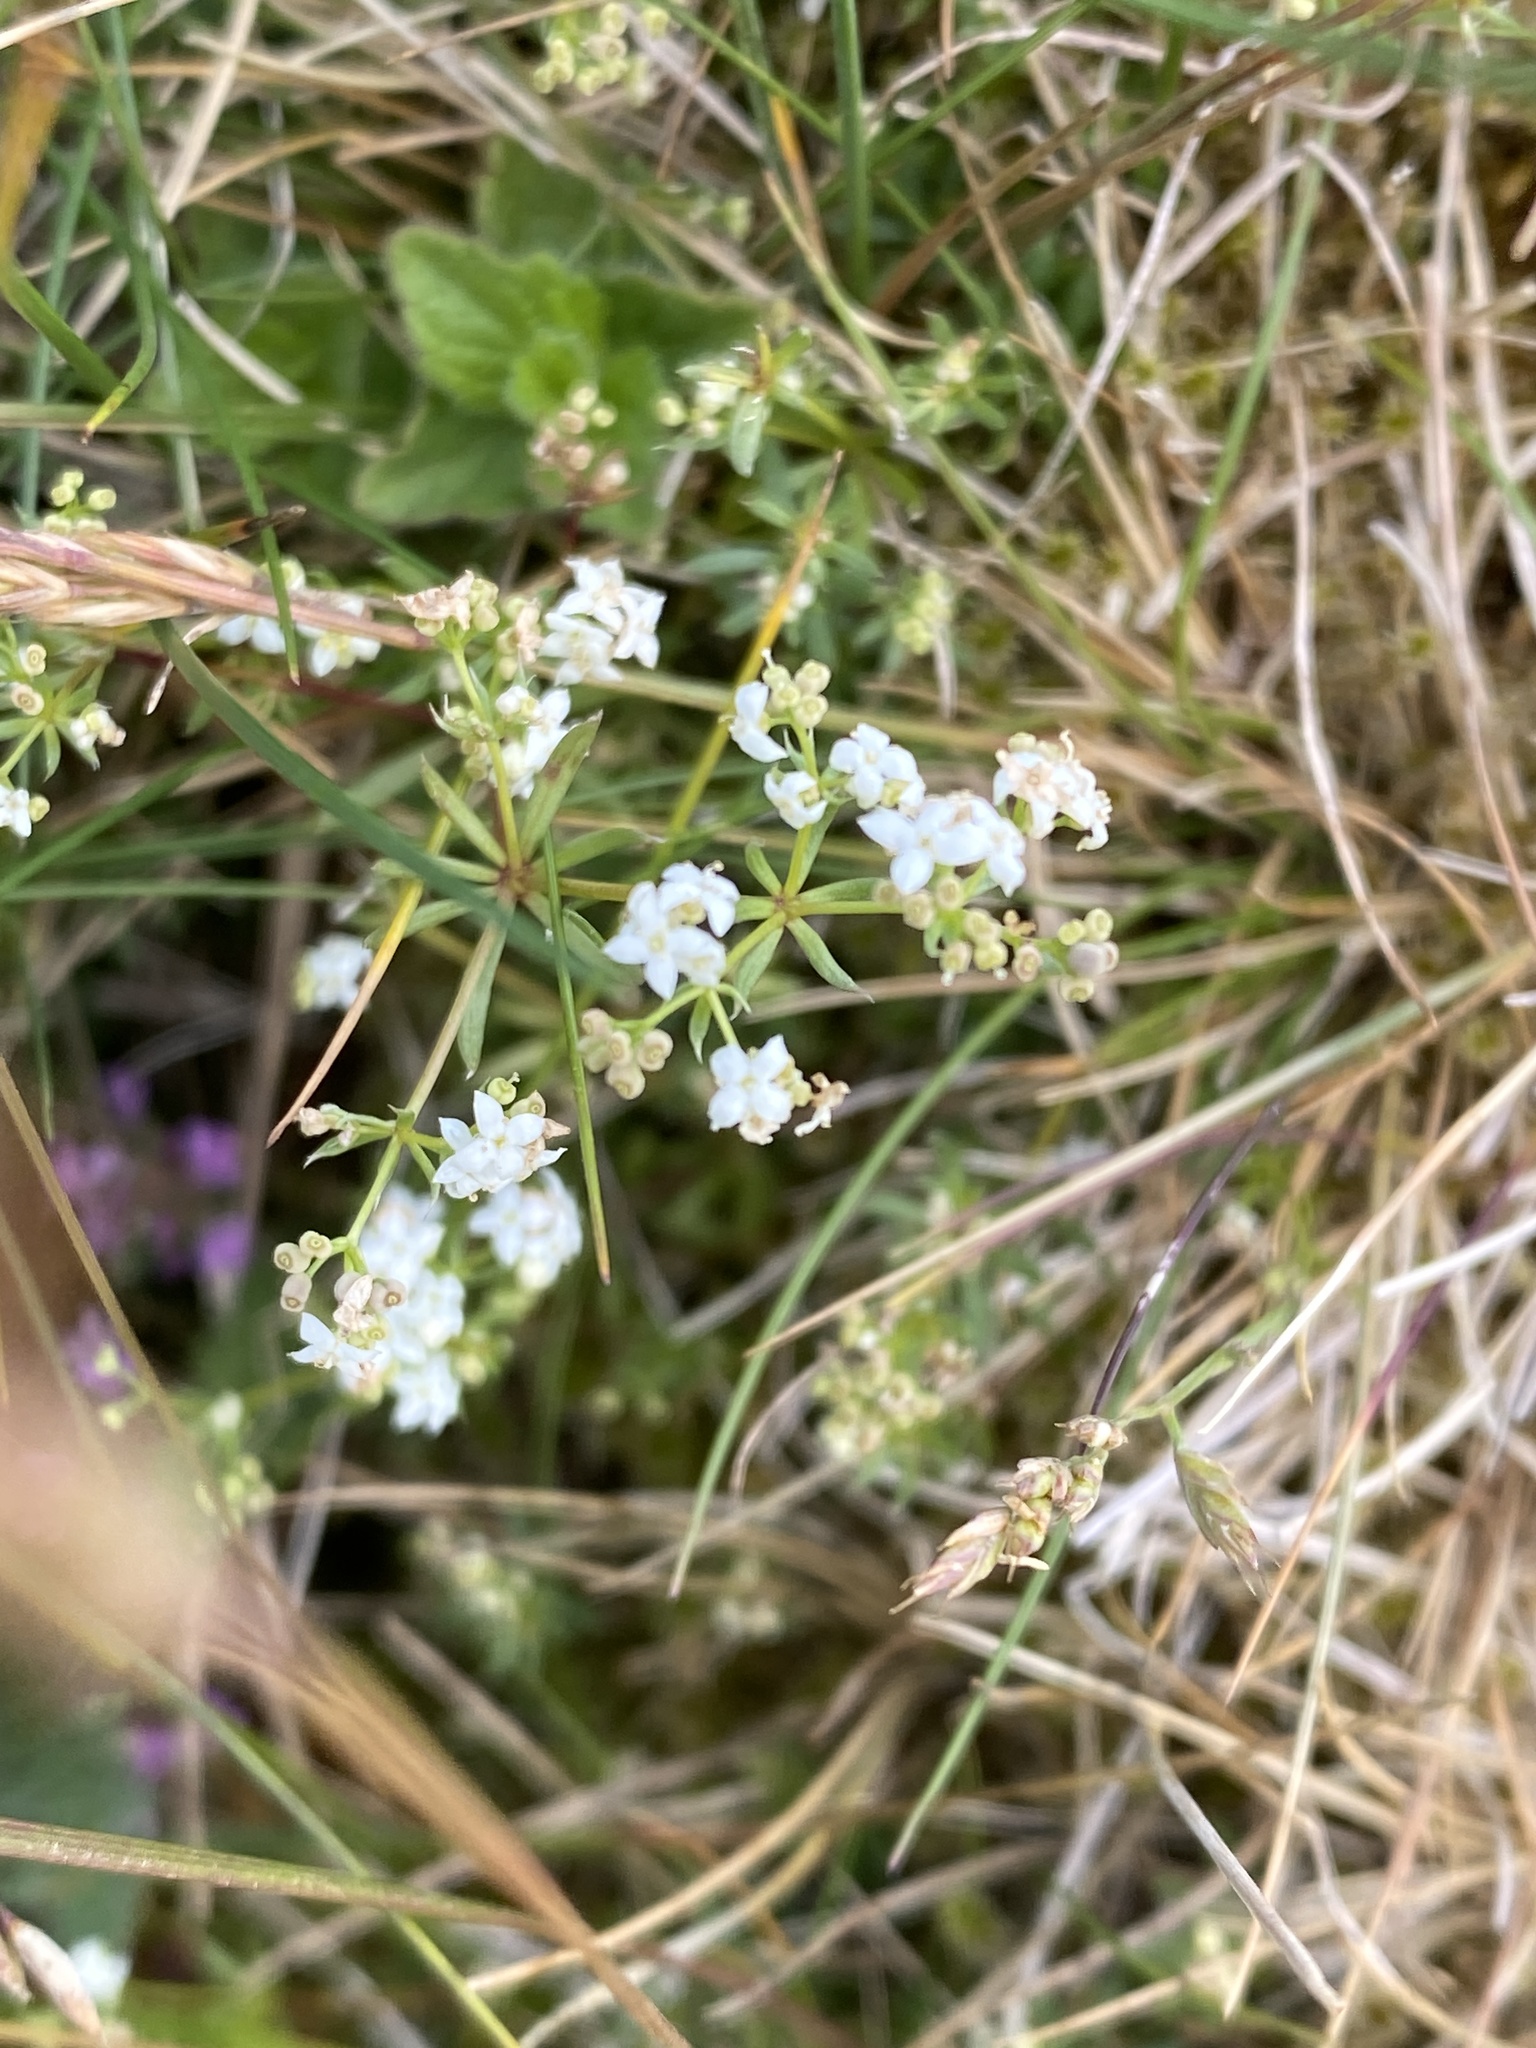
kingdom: Plantae
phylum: Tracheophyta
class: Magnoliopsida
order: Gentianales
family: Rubiaceae
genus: Galium
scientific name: Galium saxatile
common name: Heath bedstraw
